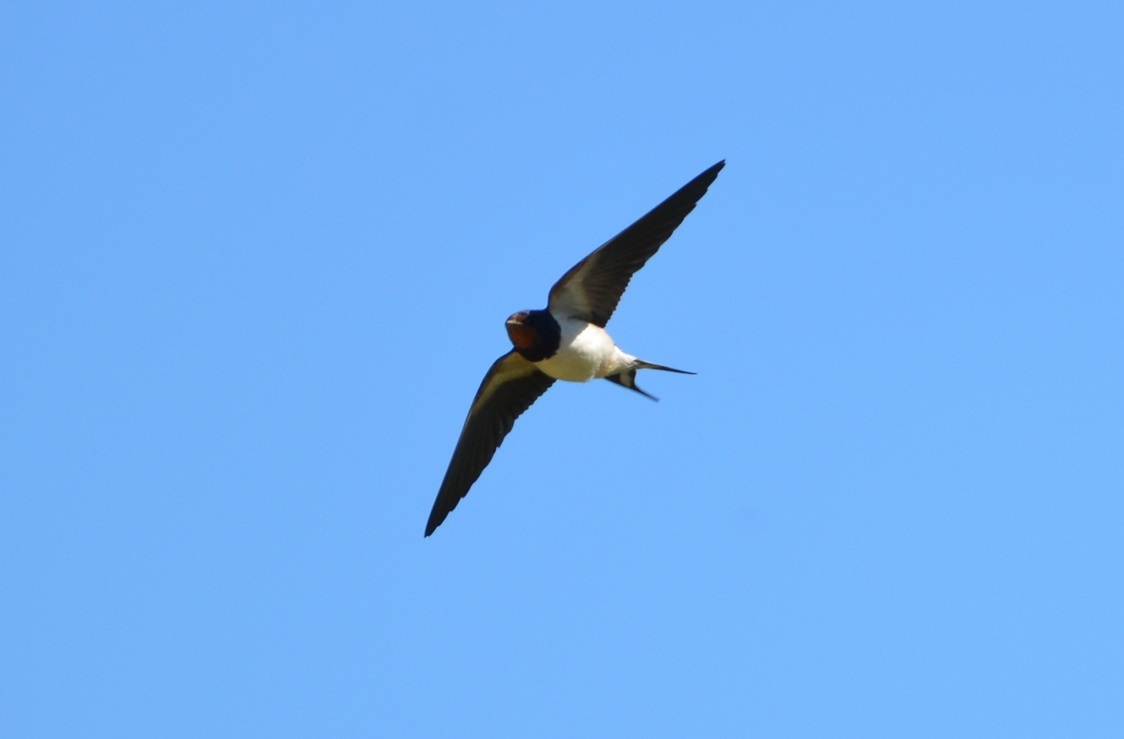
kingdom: Animalia
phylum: Chordata
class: Aves
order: Passeriformes
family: Hirundinidae
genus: Hirundo
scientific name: Hirundo rustica
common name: Barn swallow
